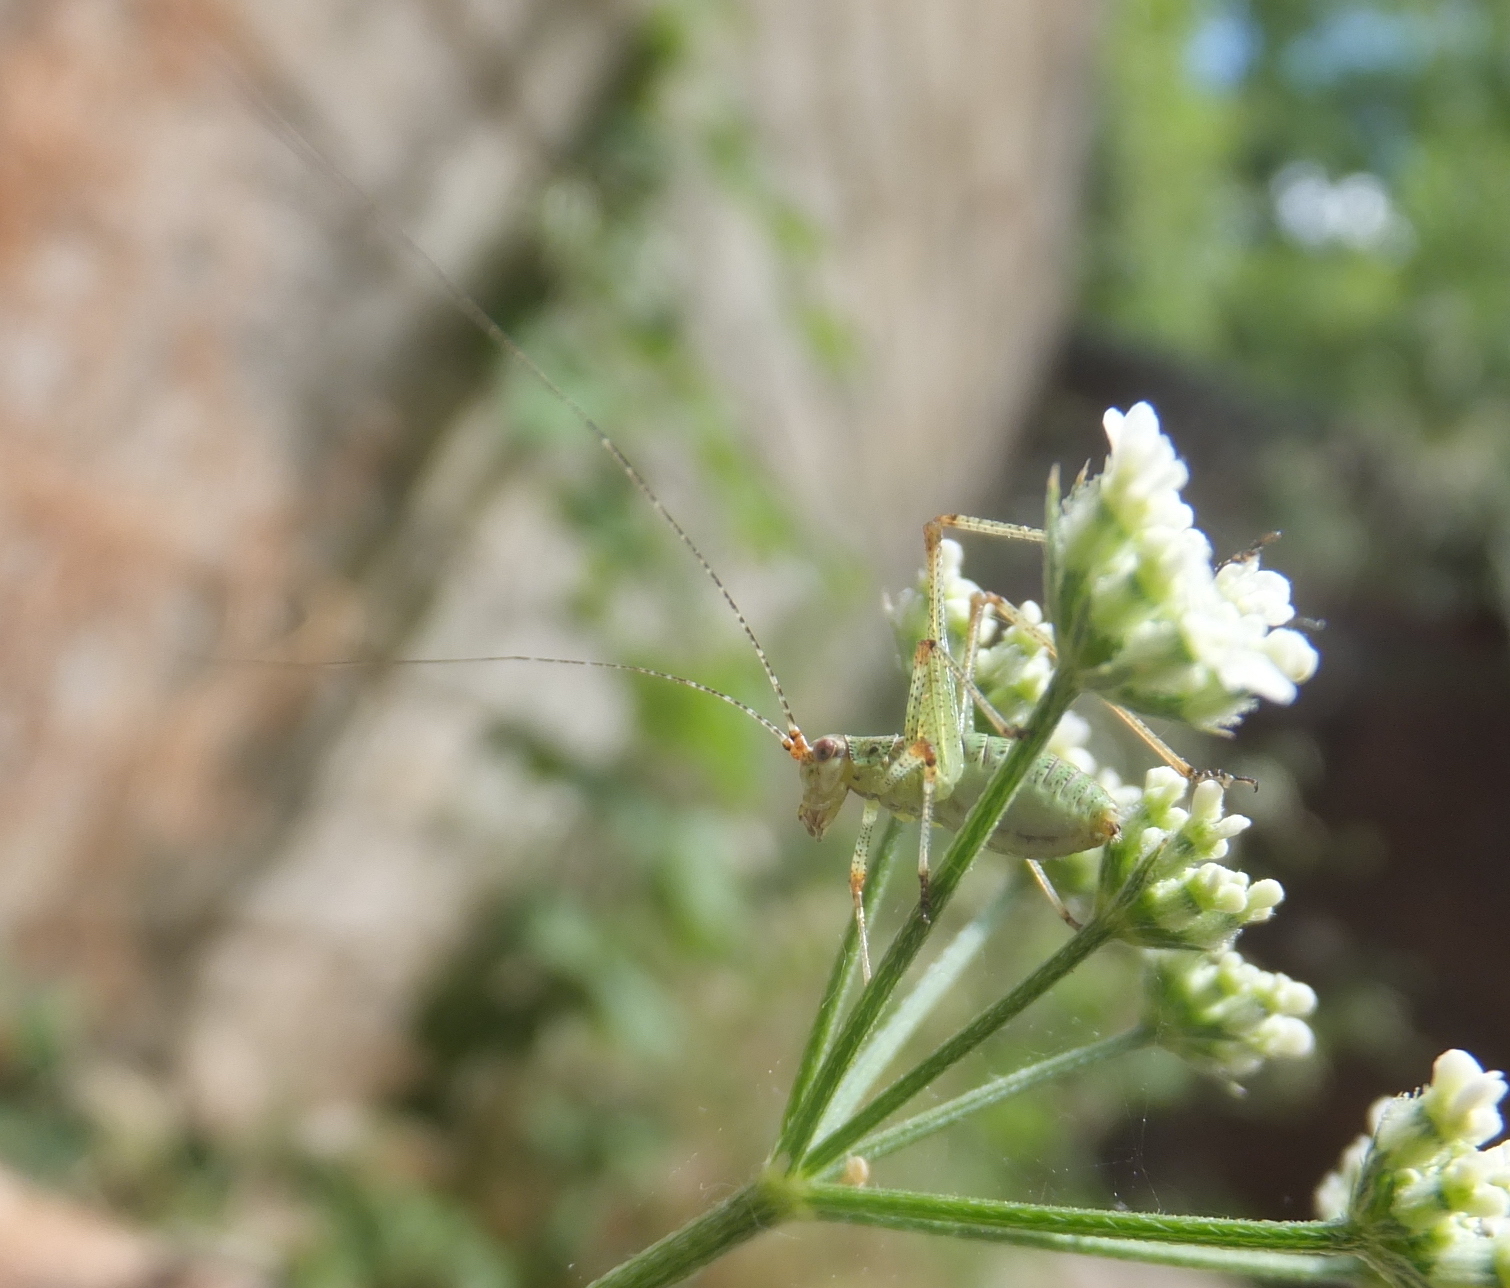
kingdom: Animalia
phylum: Arthropoda
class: Insecta
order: Orthoptera
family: Tettigoniidae
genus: Phaneroptera
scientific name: Phaneroptera nana
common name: Southern sickle bush-cricket
